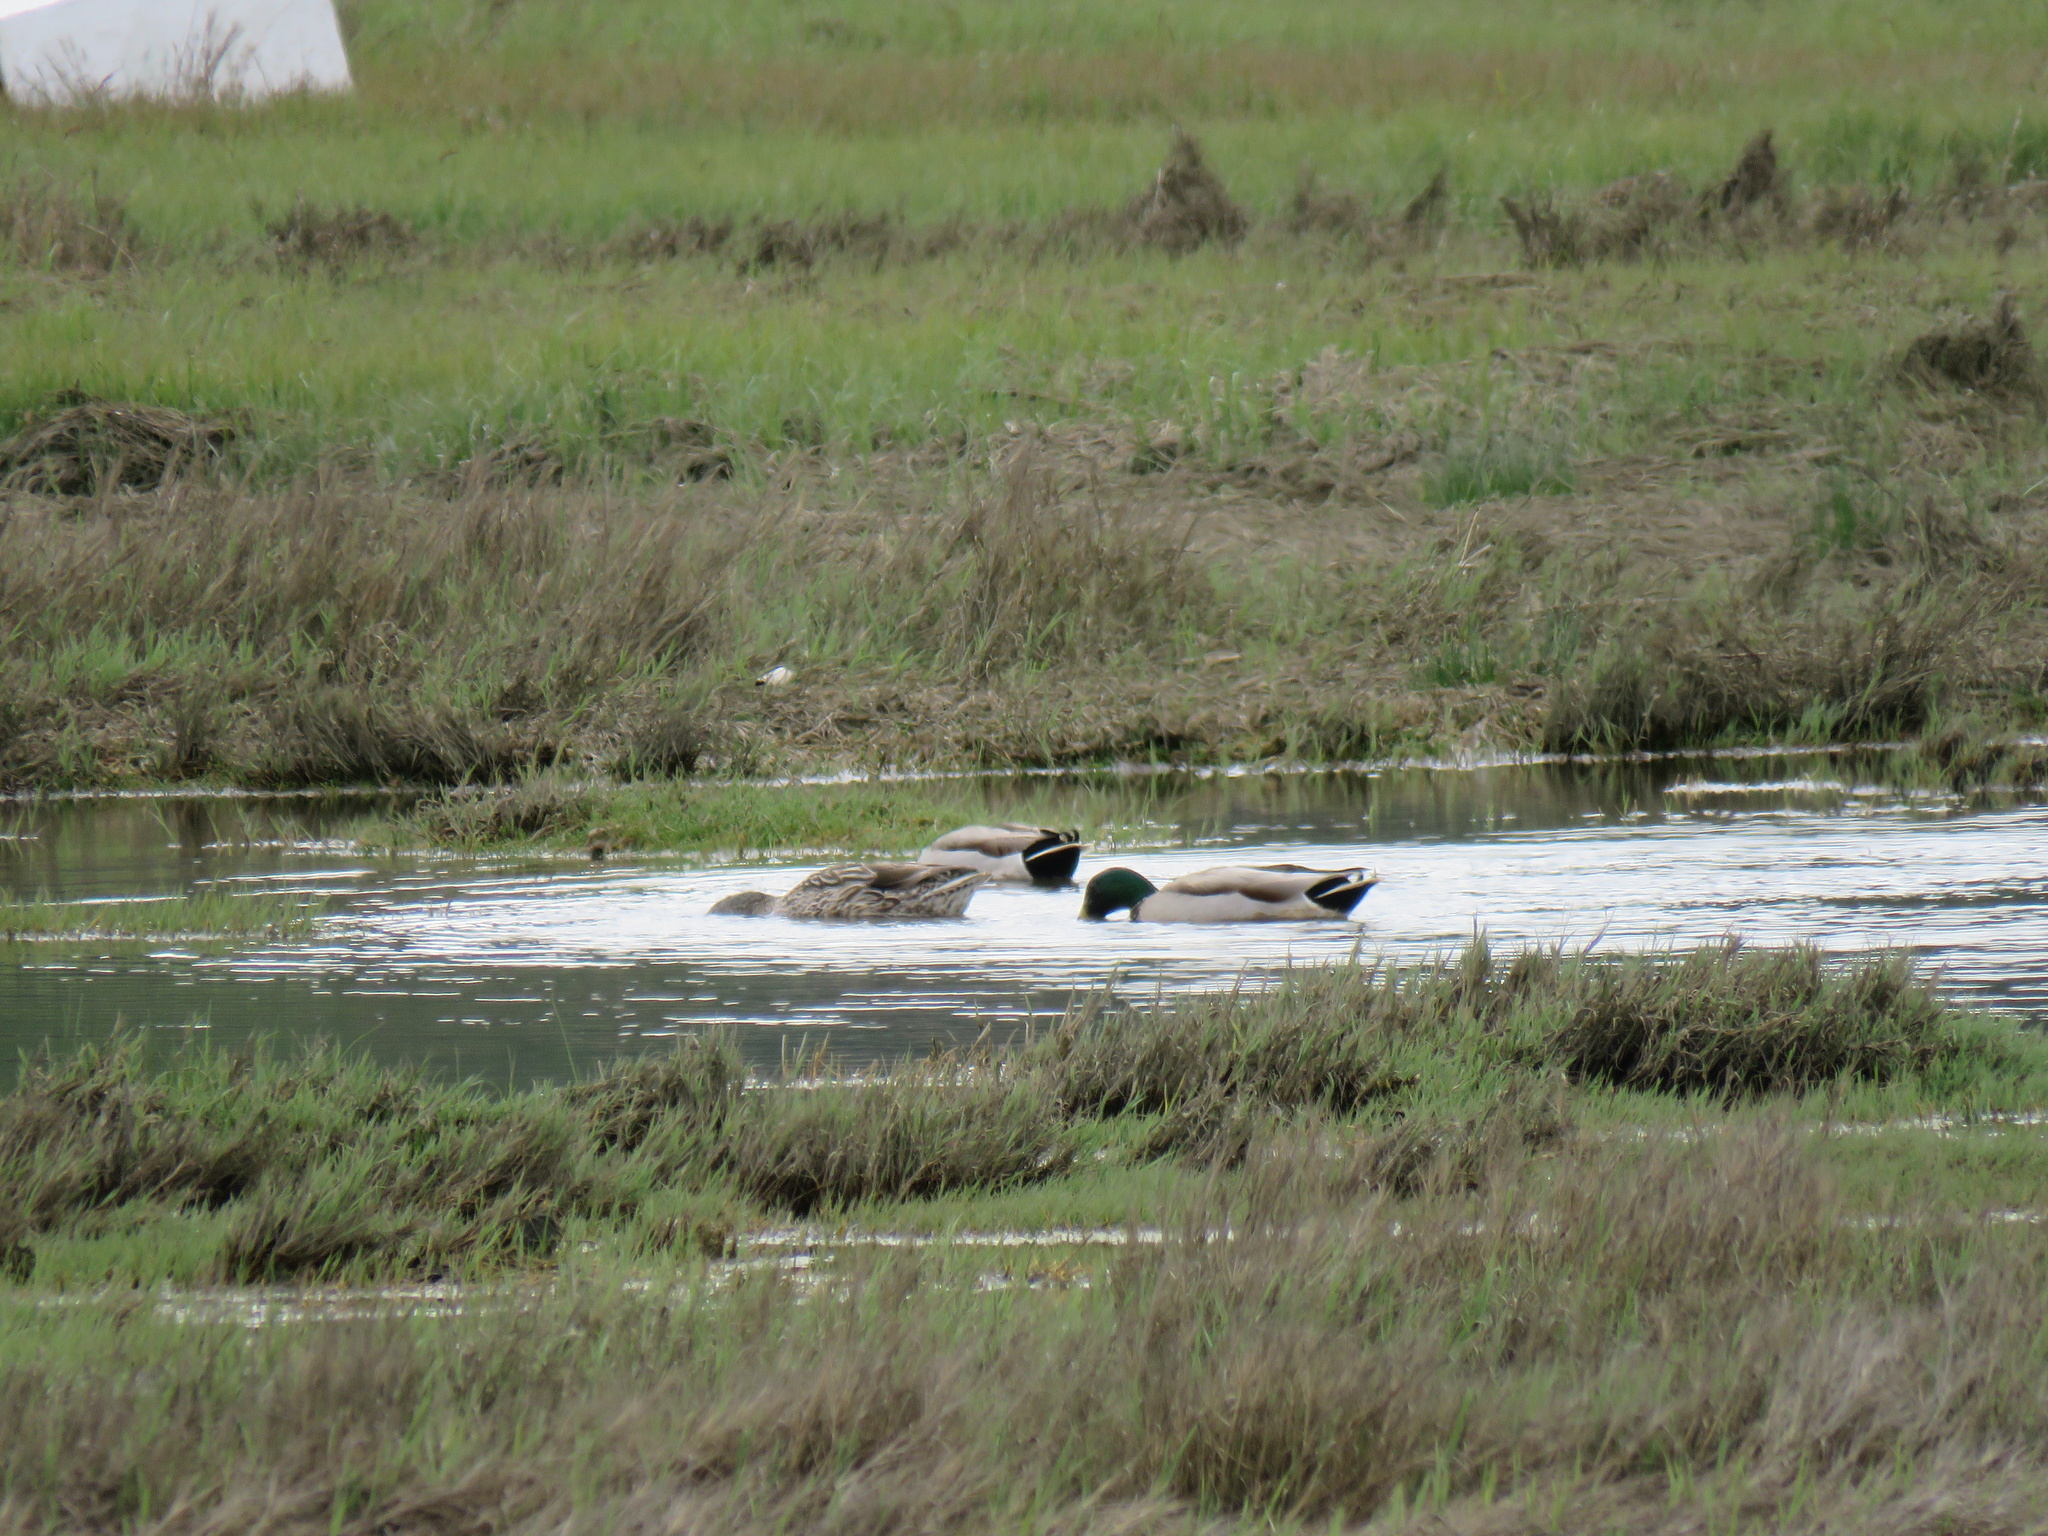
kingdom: Animalia
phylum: Chordata
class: Aves
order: Anseriformes
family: Anatidae
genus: Anas
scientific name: Anas platyrhynchos
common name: Mallard
